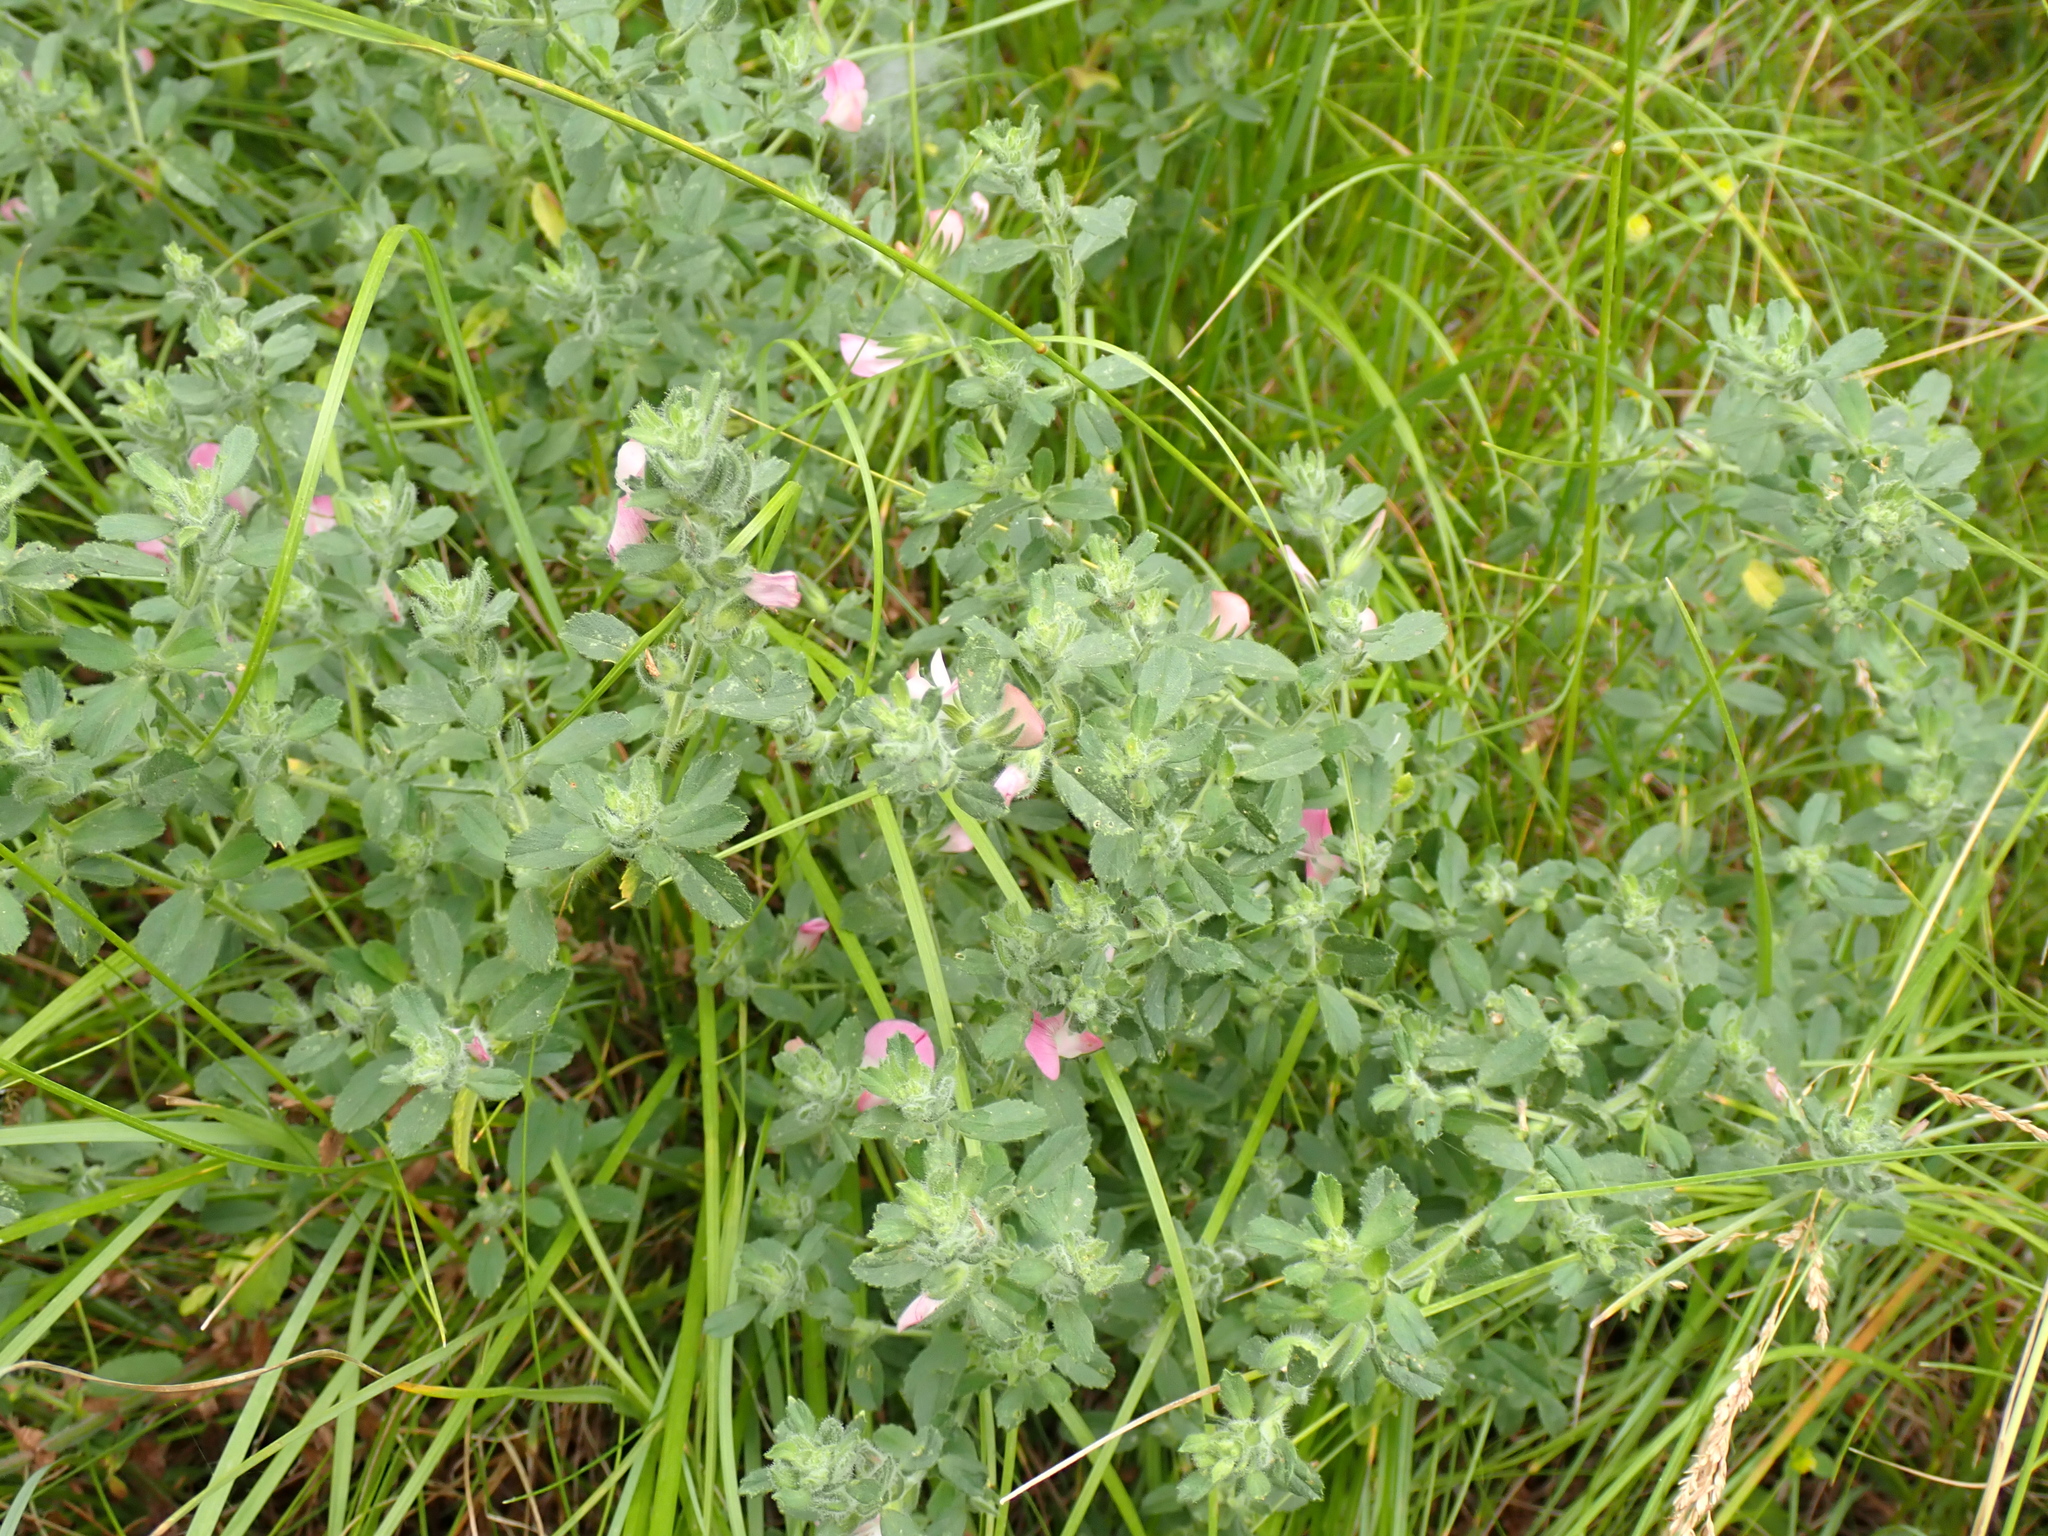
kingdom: Plantae
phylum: Tracheophyta
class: Magnoliopsida
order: Fabales
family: Fabaceae
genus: Ononis
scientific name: Ononis spinosa
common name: Spiny restharrow
